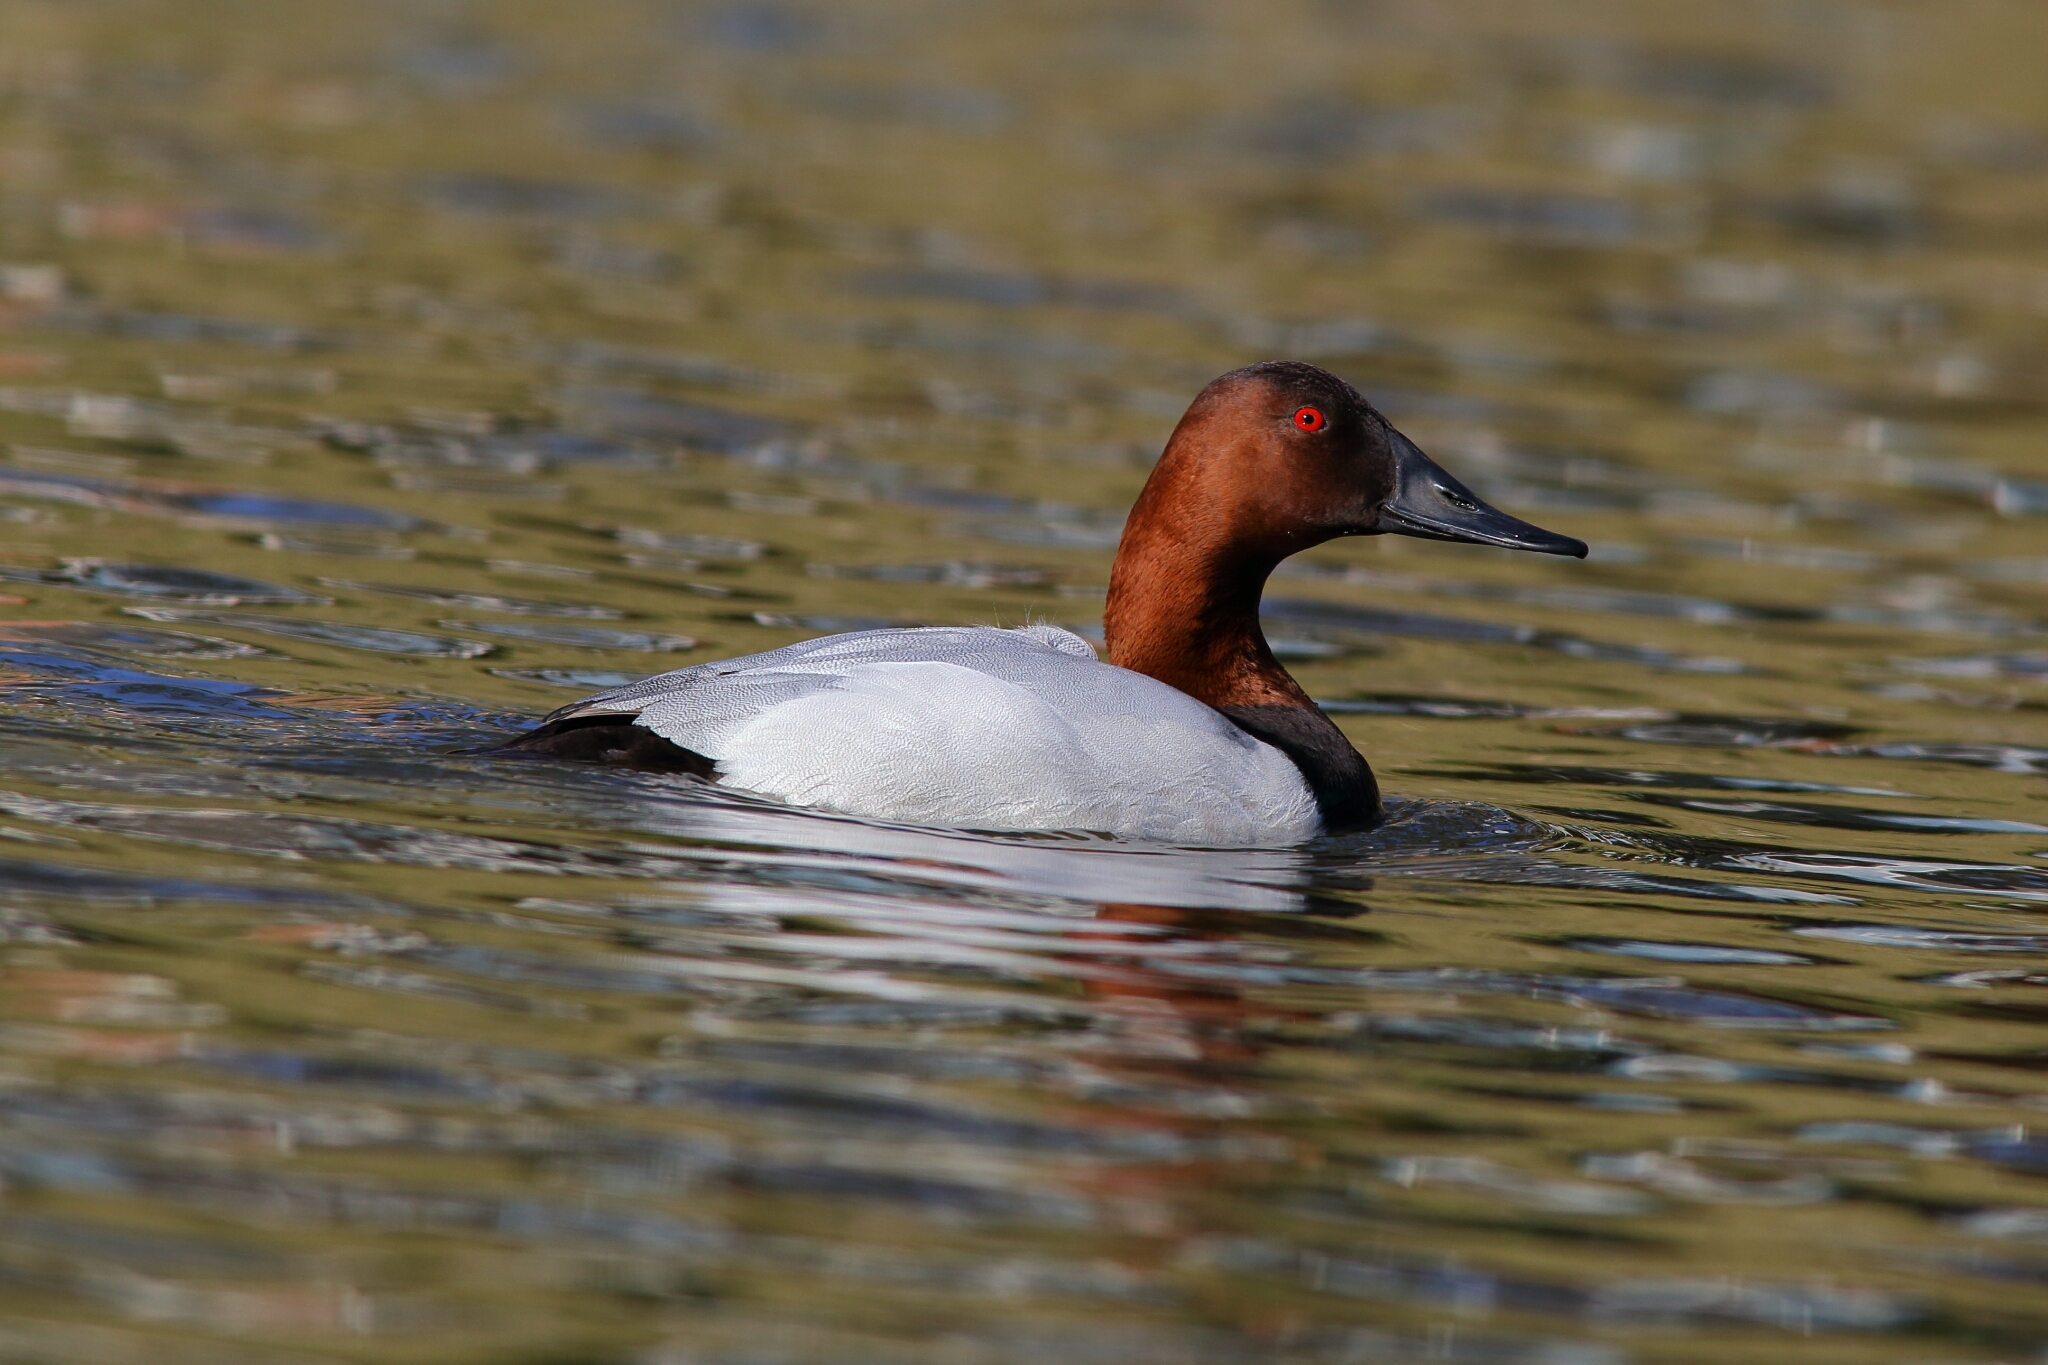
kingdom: Animalia
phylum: Chordata
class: Aves
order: Anseriformes
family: Anatidae
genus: Aythya
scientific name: Aythya valisineria
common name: Canvasback
